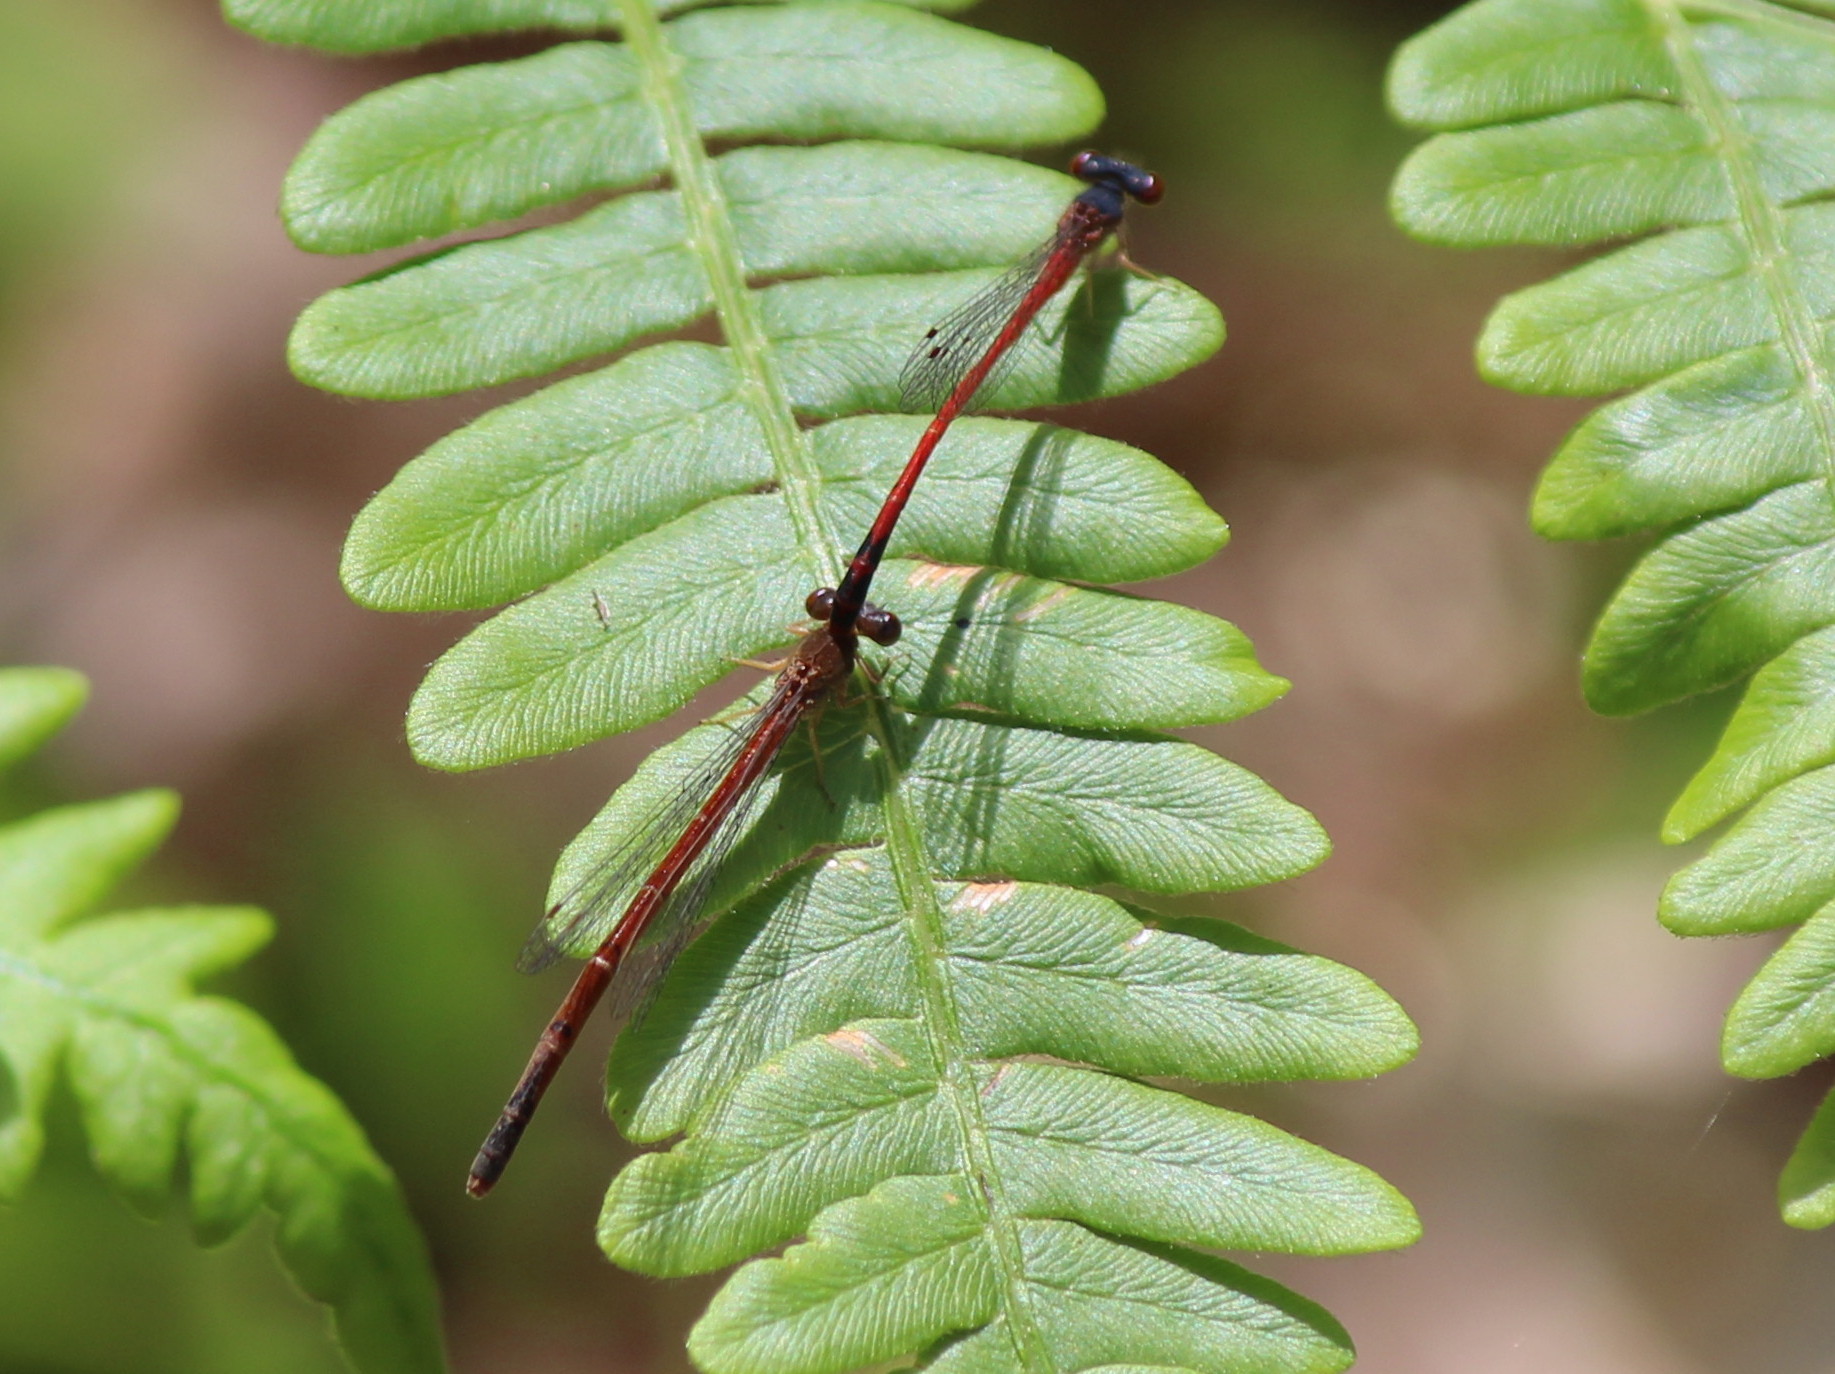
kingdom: Animalia
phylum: Arthropoda
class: Insecta
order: Odonata
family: Coenagrionidae
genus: Amphiagrion
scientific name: Amphiagrion saucium
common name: Eastern red damsel
